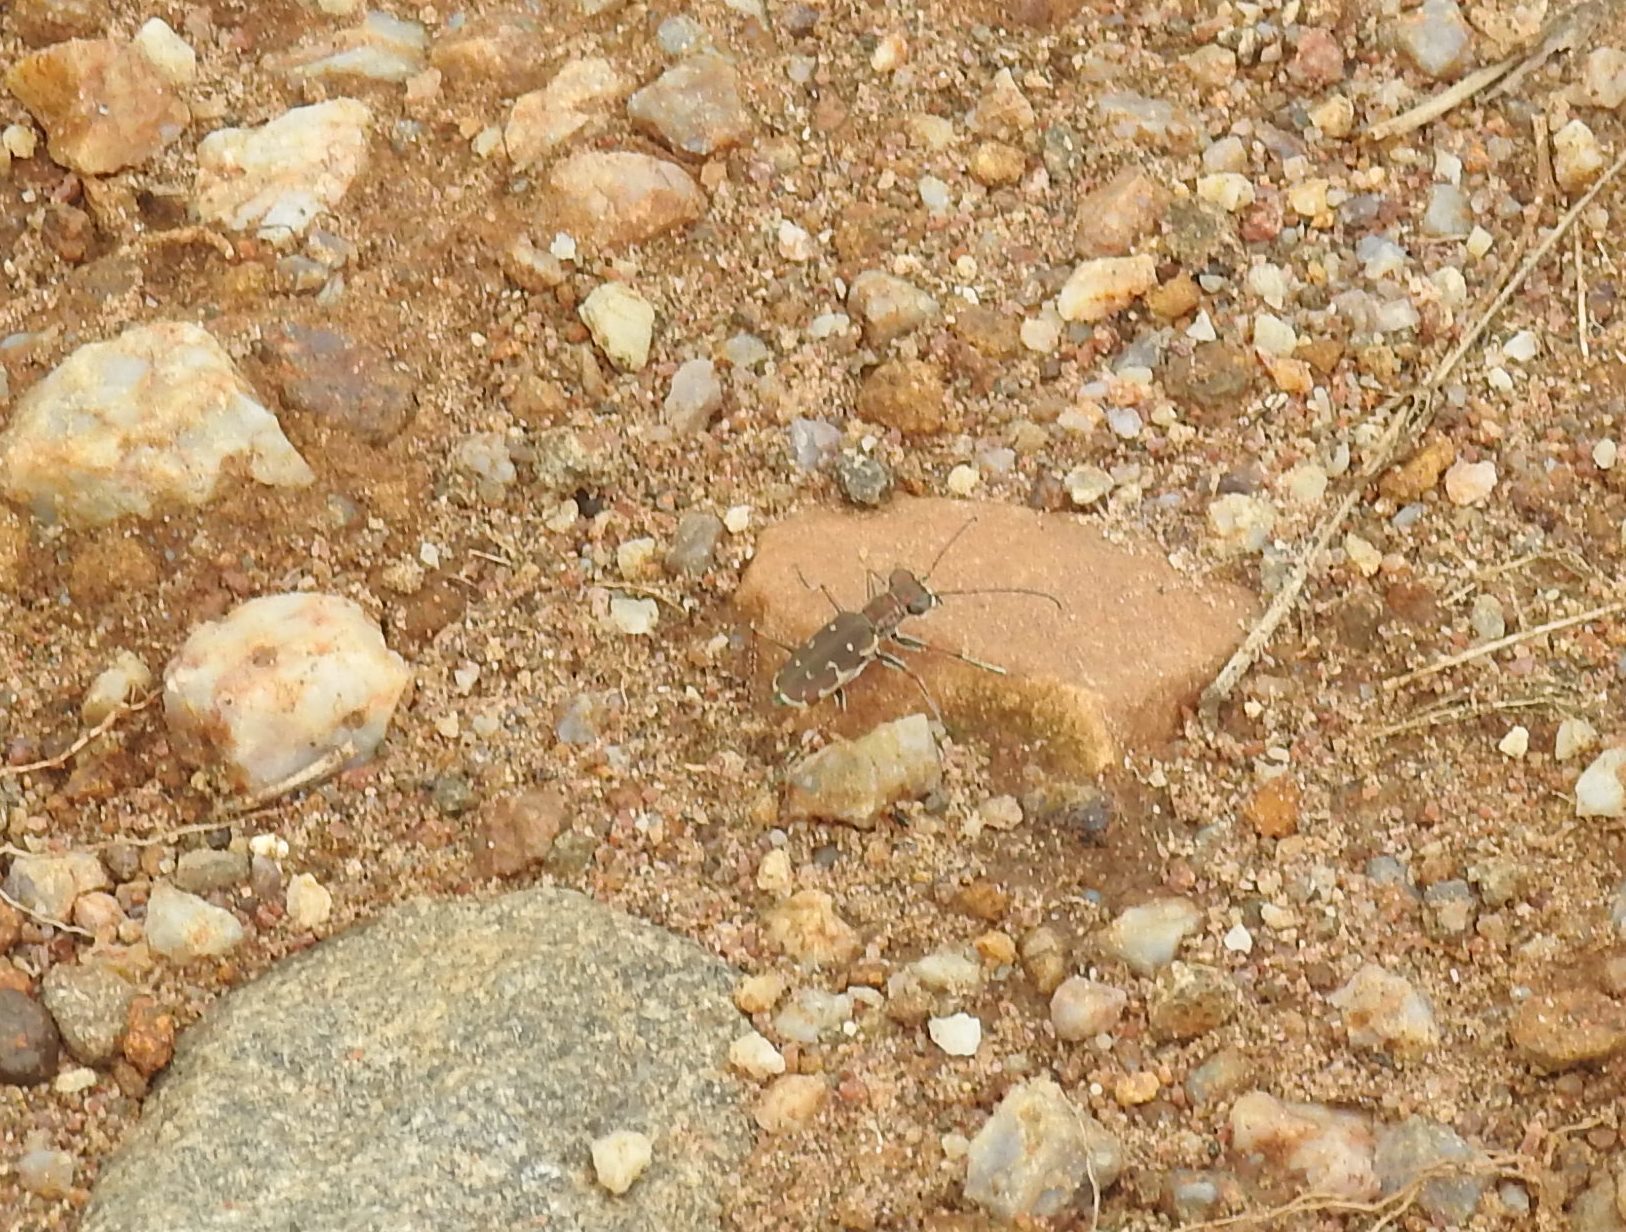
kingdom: Animalia
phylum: Arthropoda
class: Insecta
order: Coleoptera
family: Carabidae
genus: Myriochila
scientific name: Myriochila fastidiosa
